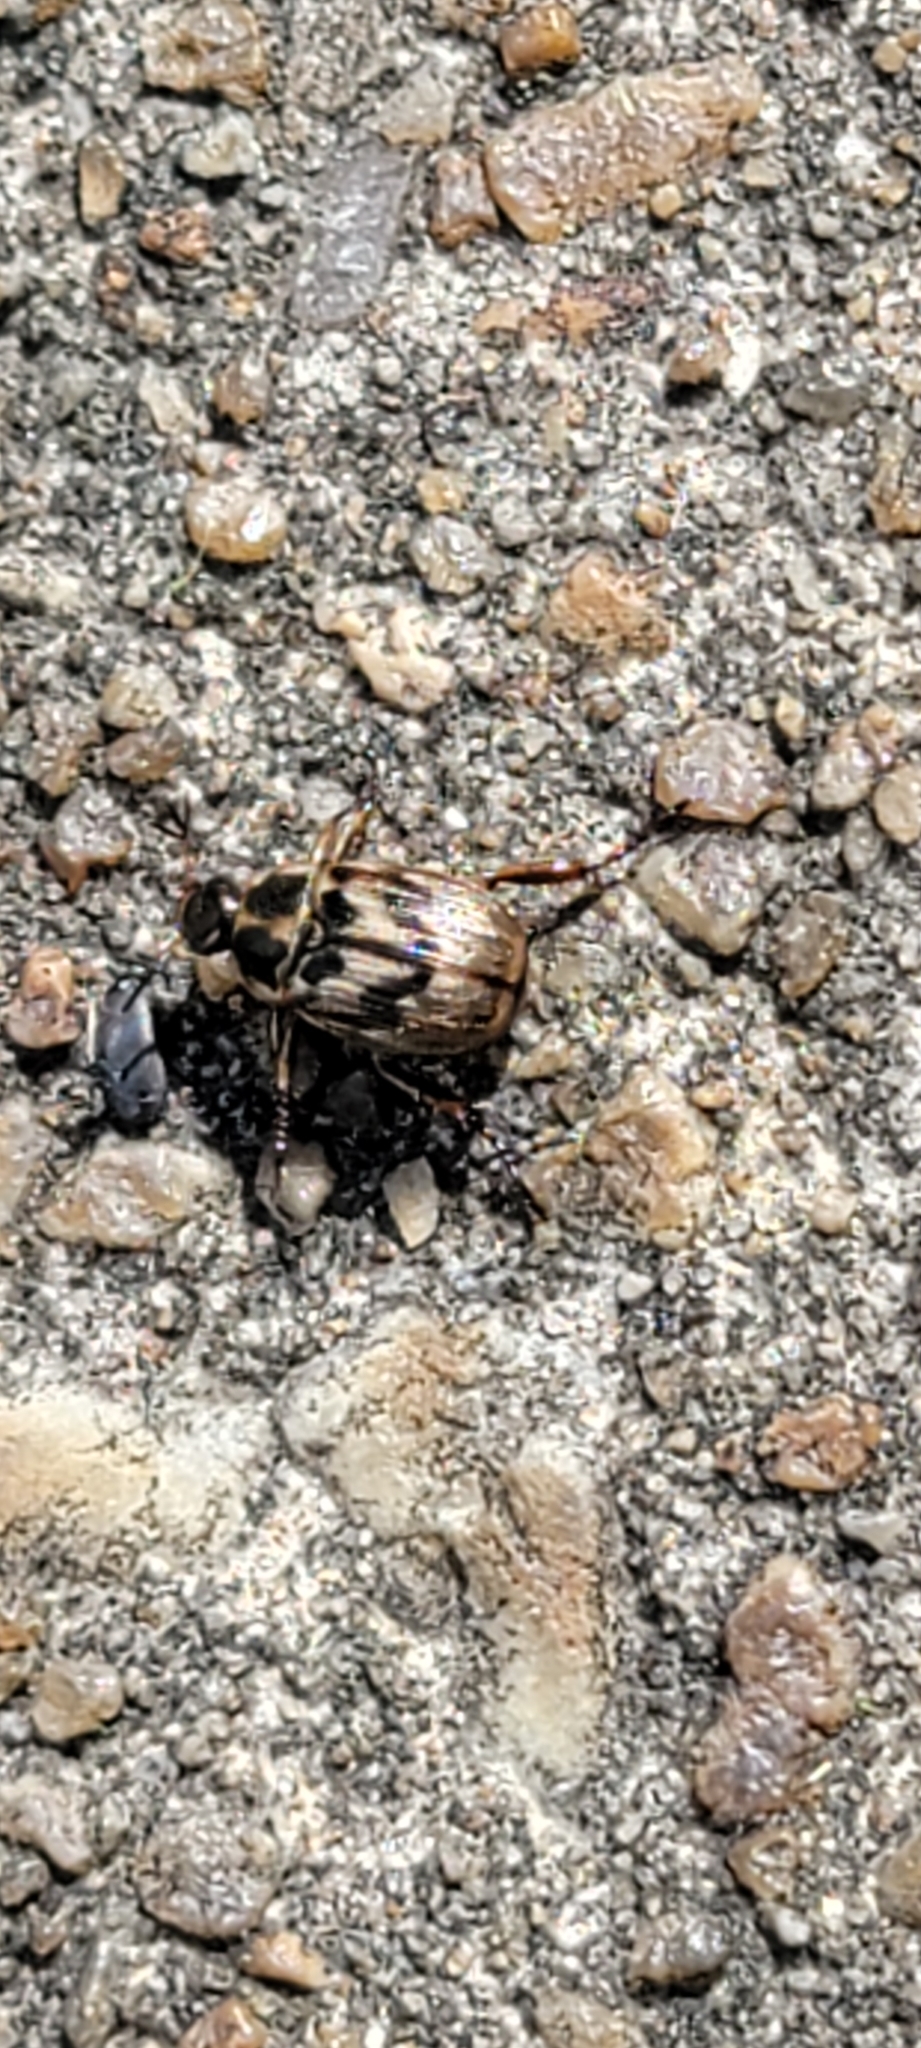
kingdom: Animalia
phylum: Arthropoda
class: Insecta
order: Coleoptera
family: Scarabaeidae
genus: Exomala
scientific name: Exomala orientalis
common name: Oriental beetle
